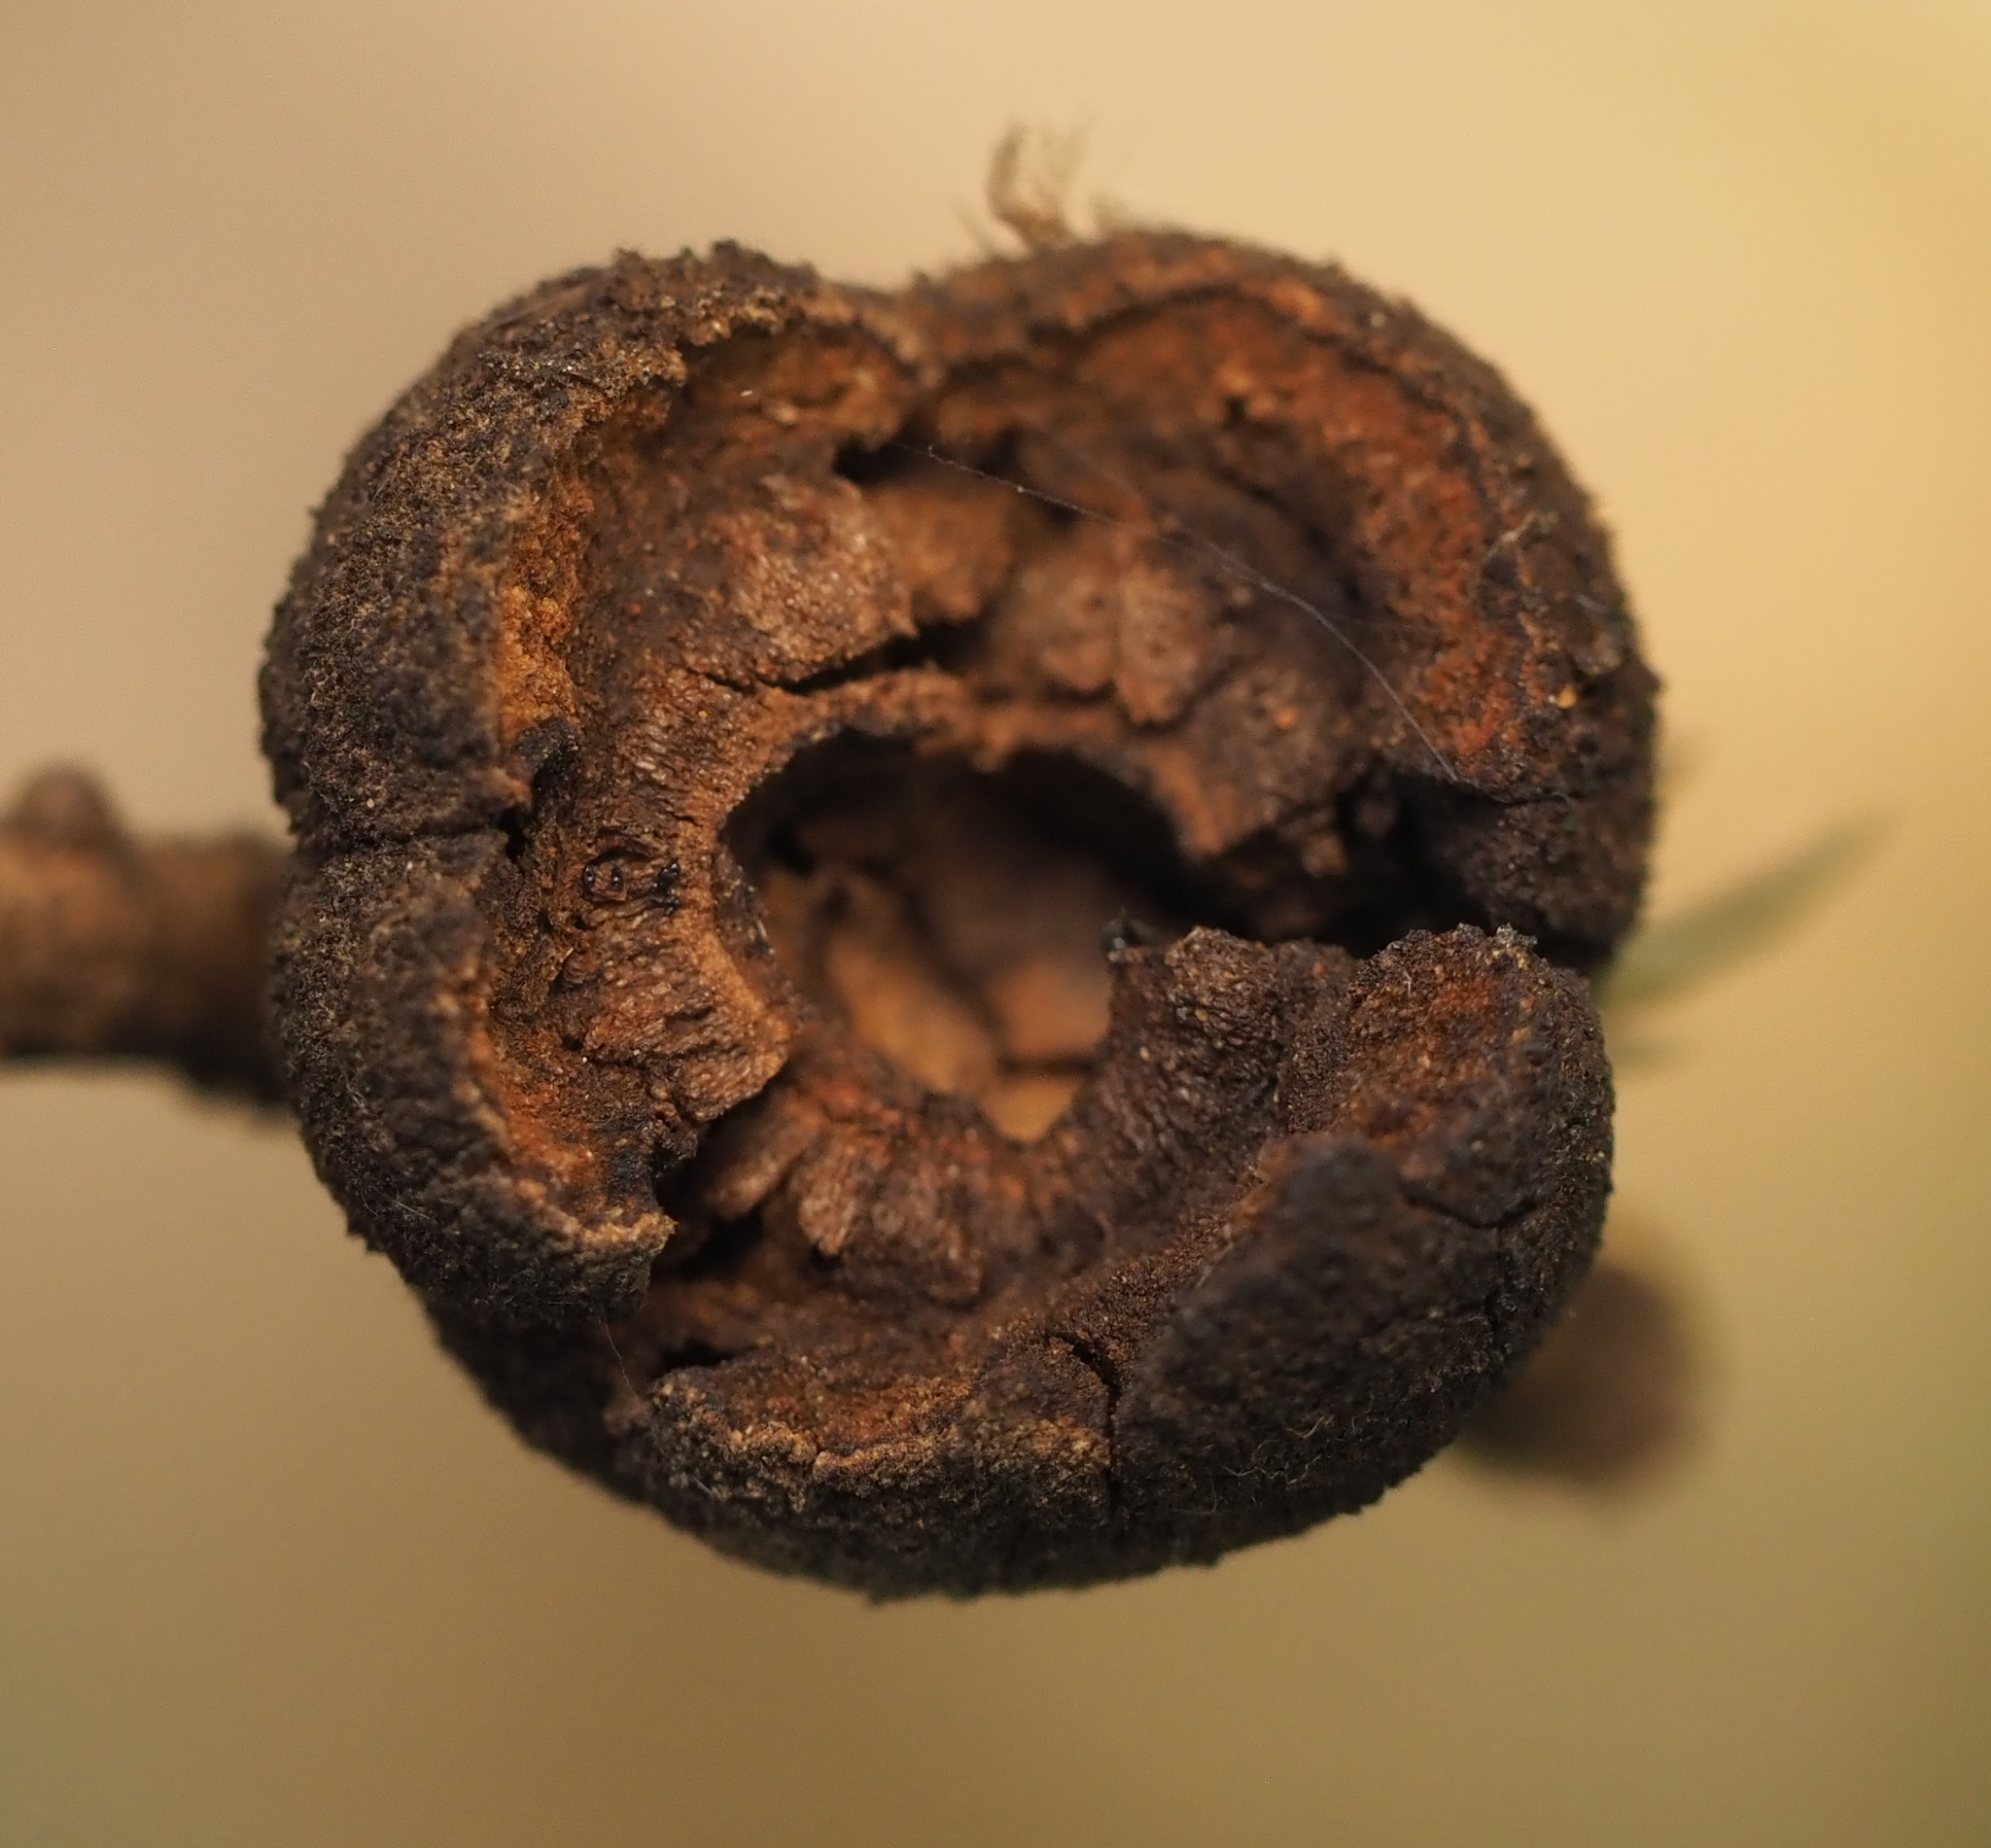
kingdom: Animalia
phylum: Arthropoda
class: Insecta
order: Hymenoptera
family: Cynipidae
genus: Disholcaspis
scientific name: Disholcaspis
